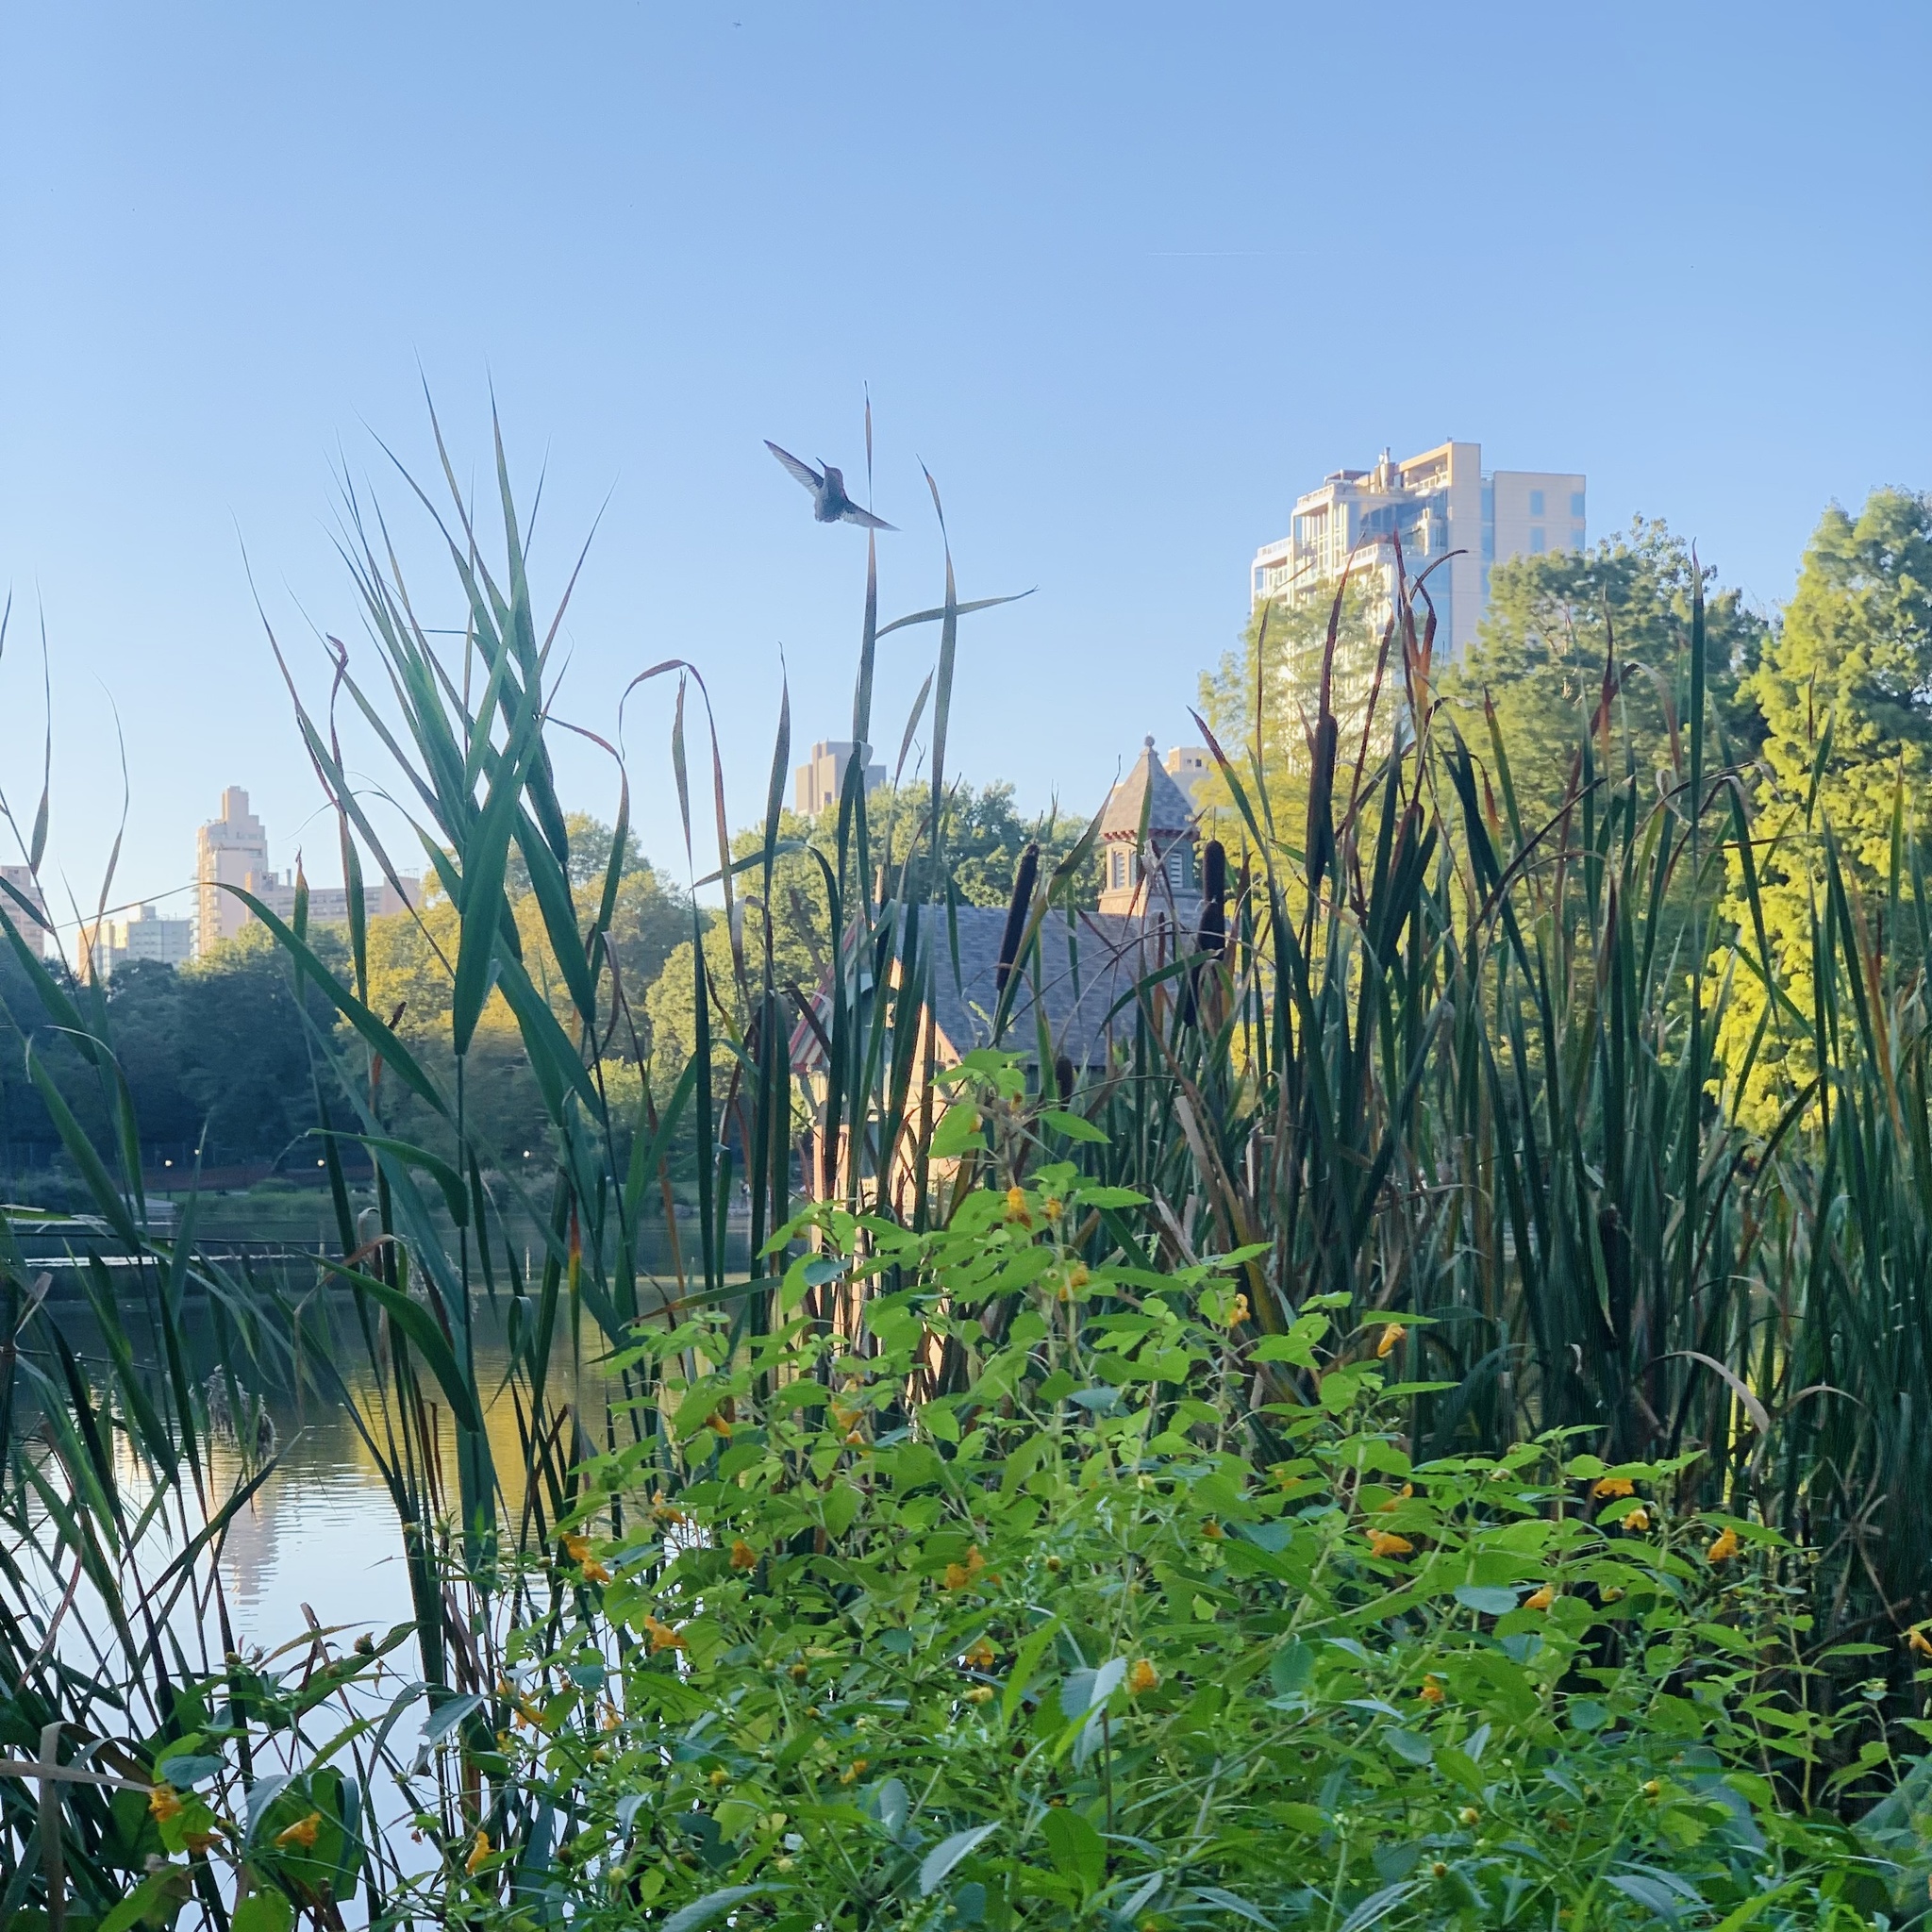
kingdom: Animalia
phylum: Chordata
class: Aves
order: Apodiformes
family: Trochilidae
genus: Archilochus
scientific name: Archilochus colubris
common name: Ruby-throated hummingbird
